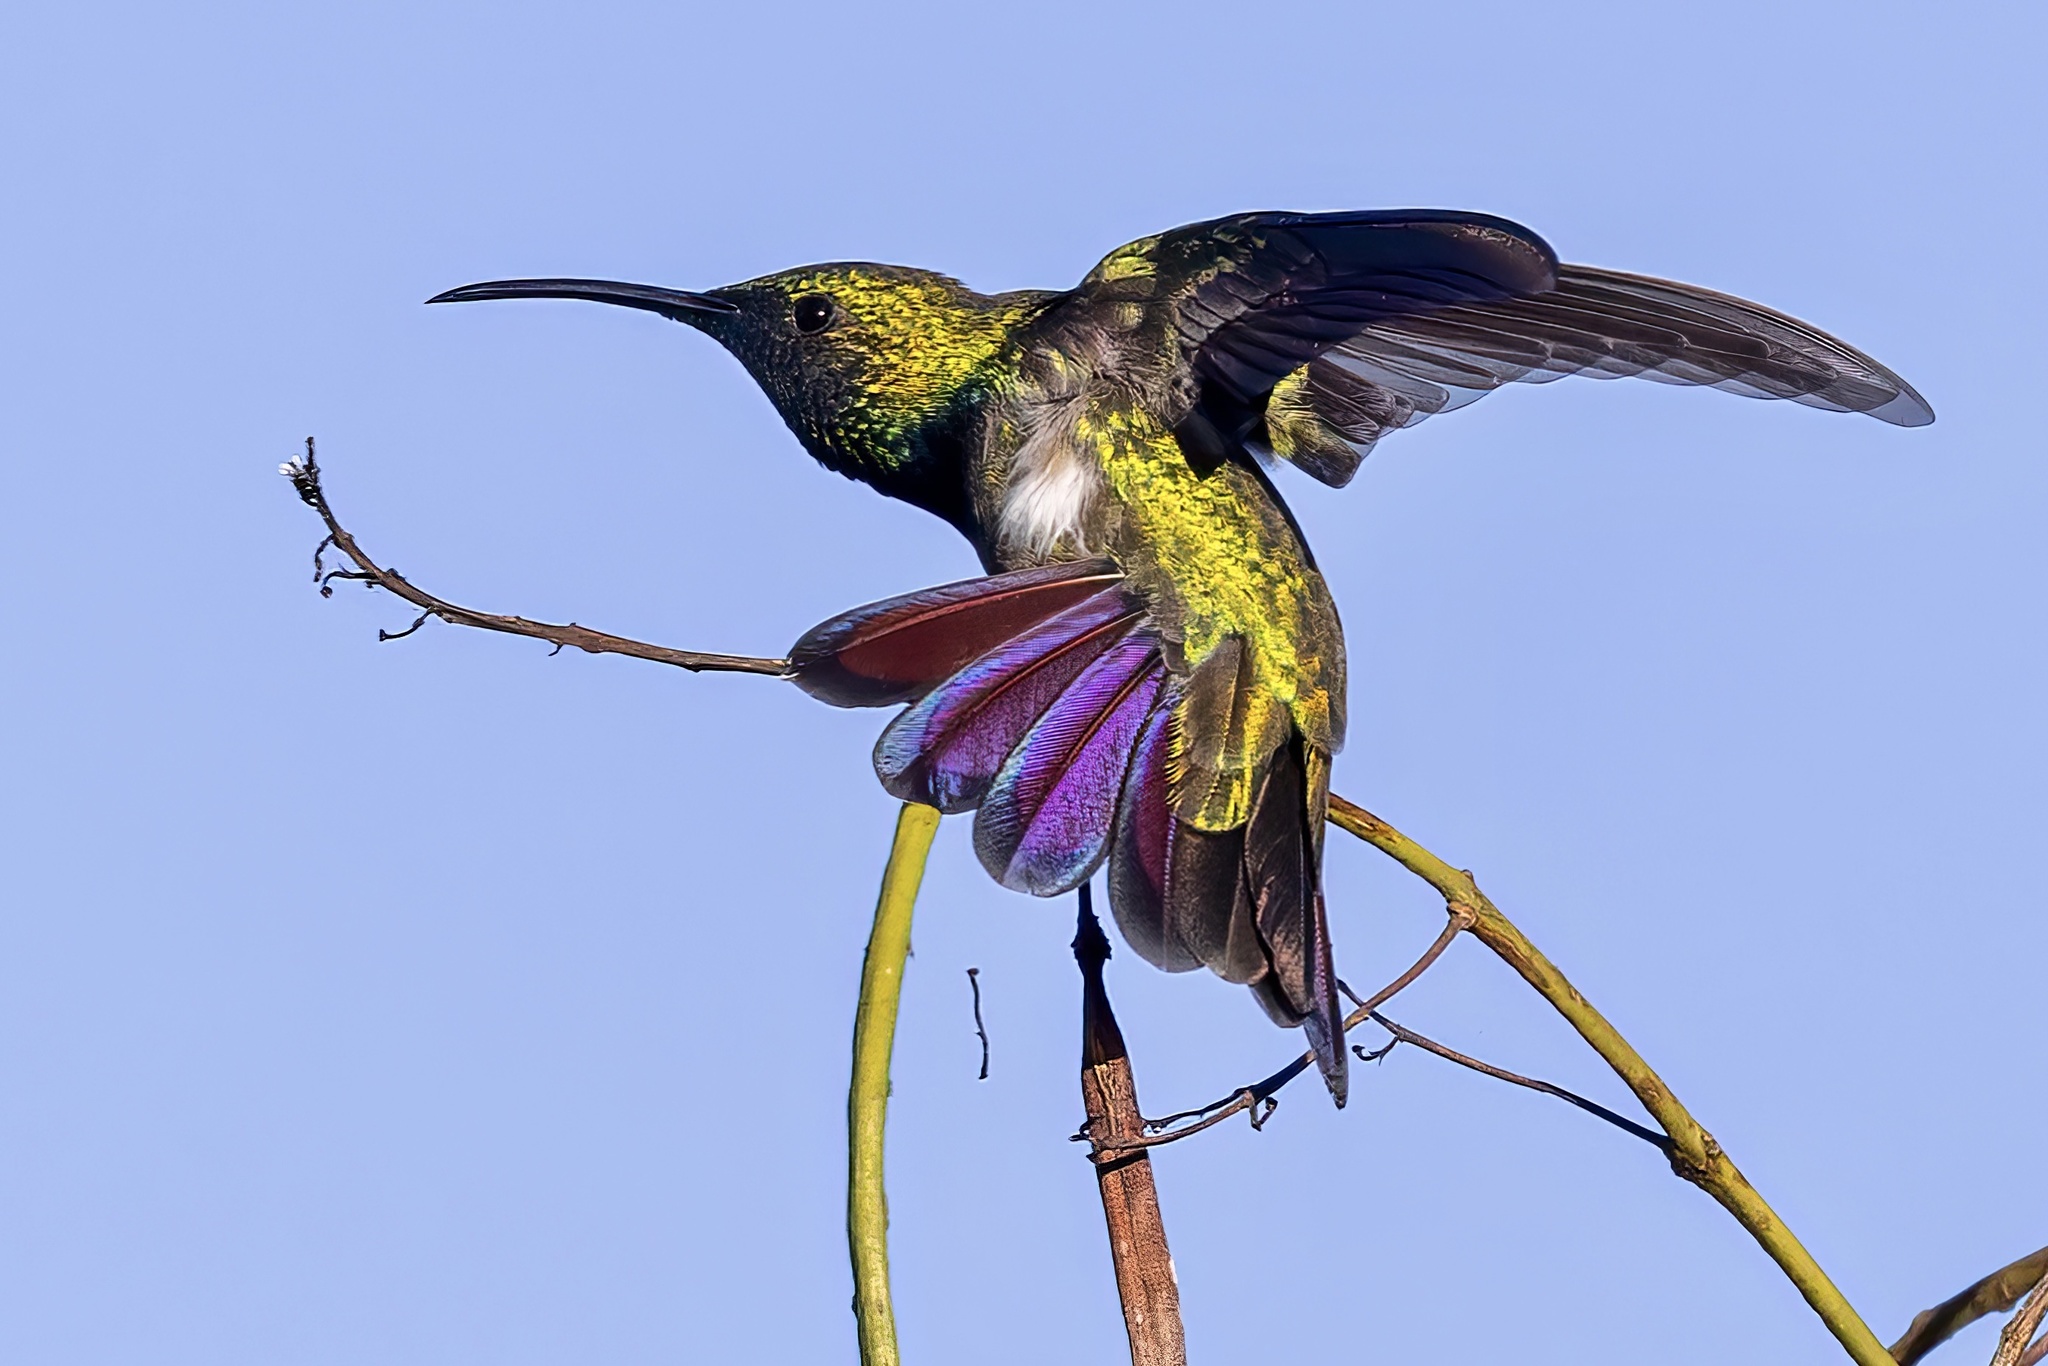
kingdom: Animalia
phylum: Chordata
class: Aves
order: Apodiformes
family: Trochilidae
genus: Anthracothorax
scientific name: Anthracothorax dominicus
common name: Antillean mango
